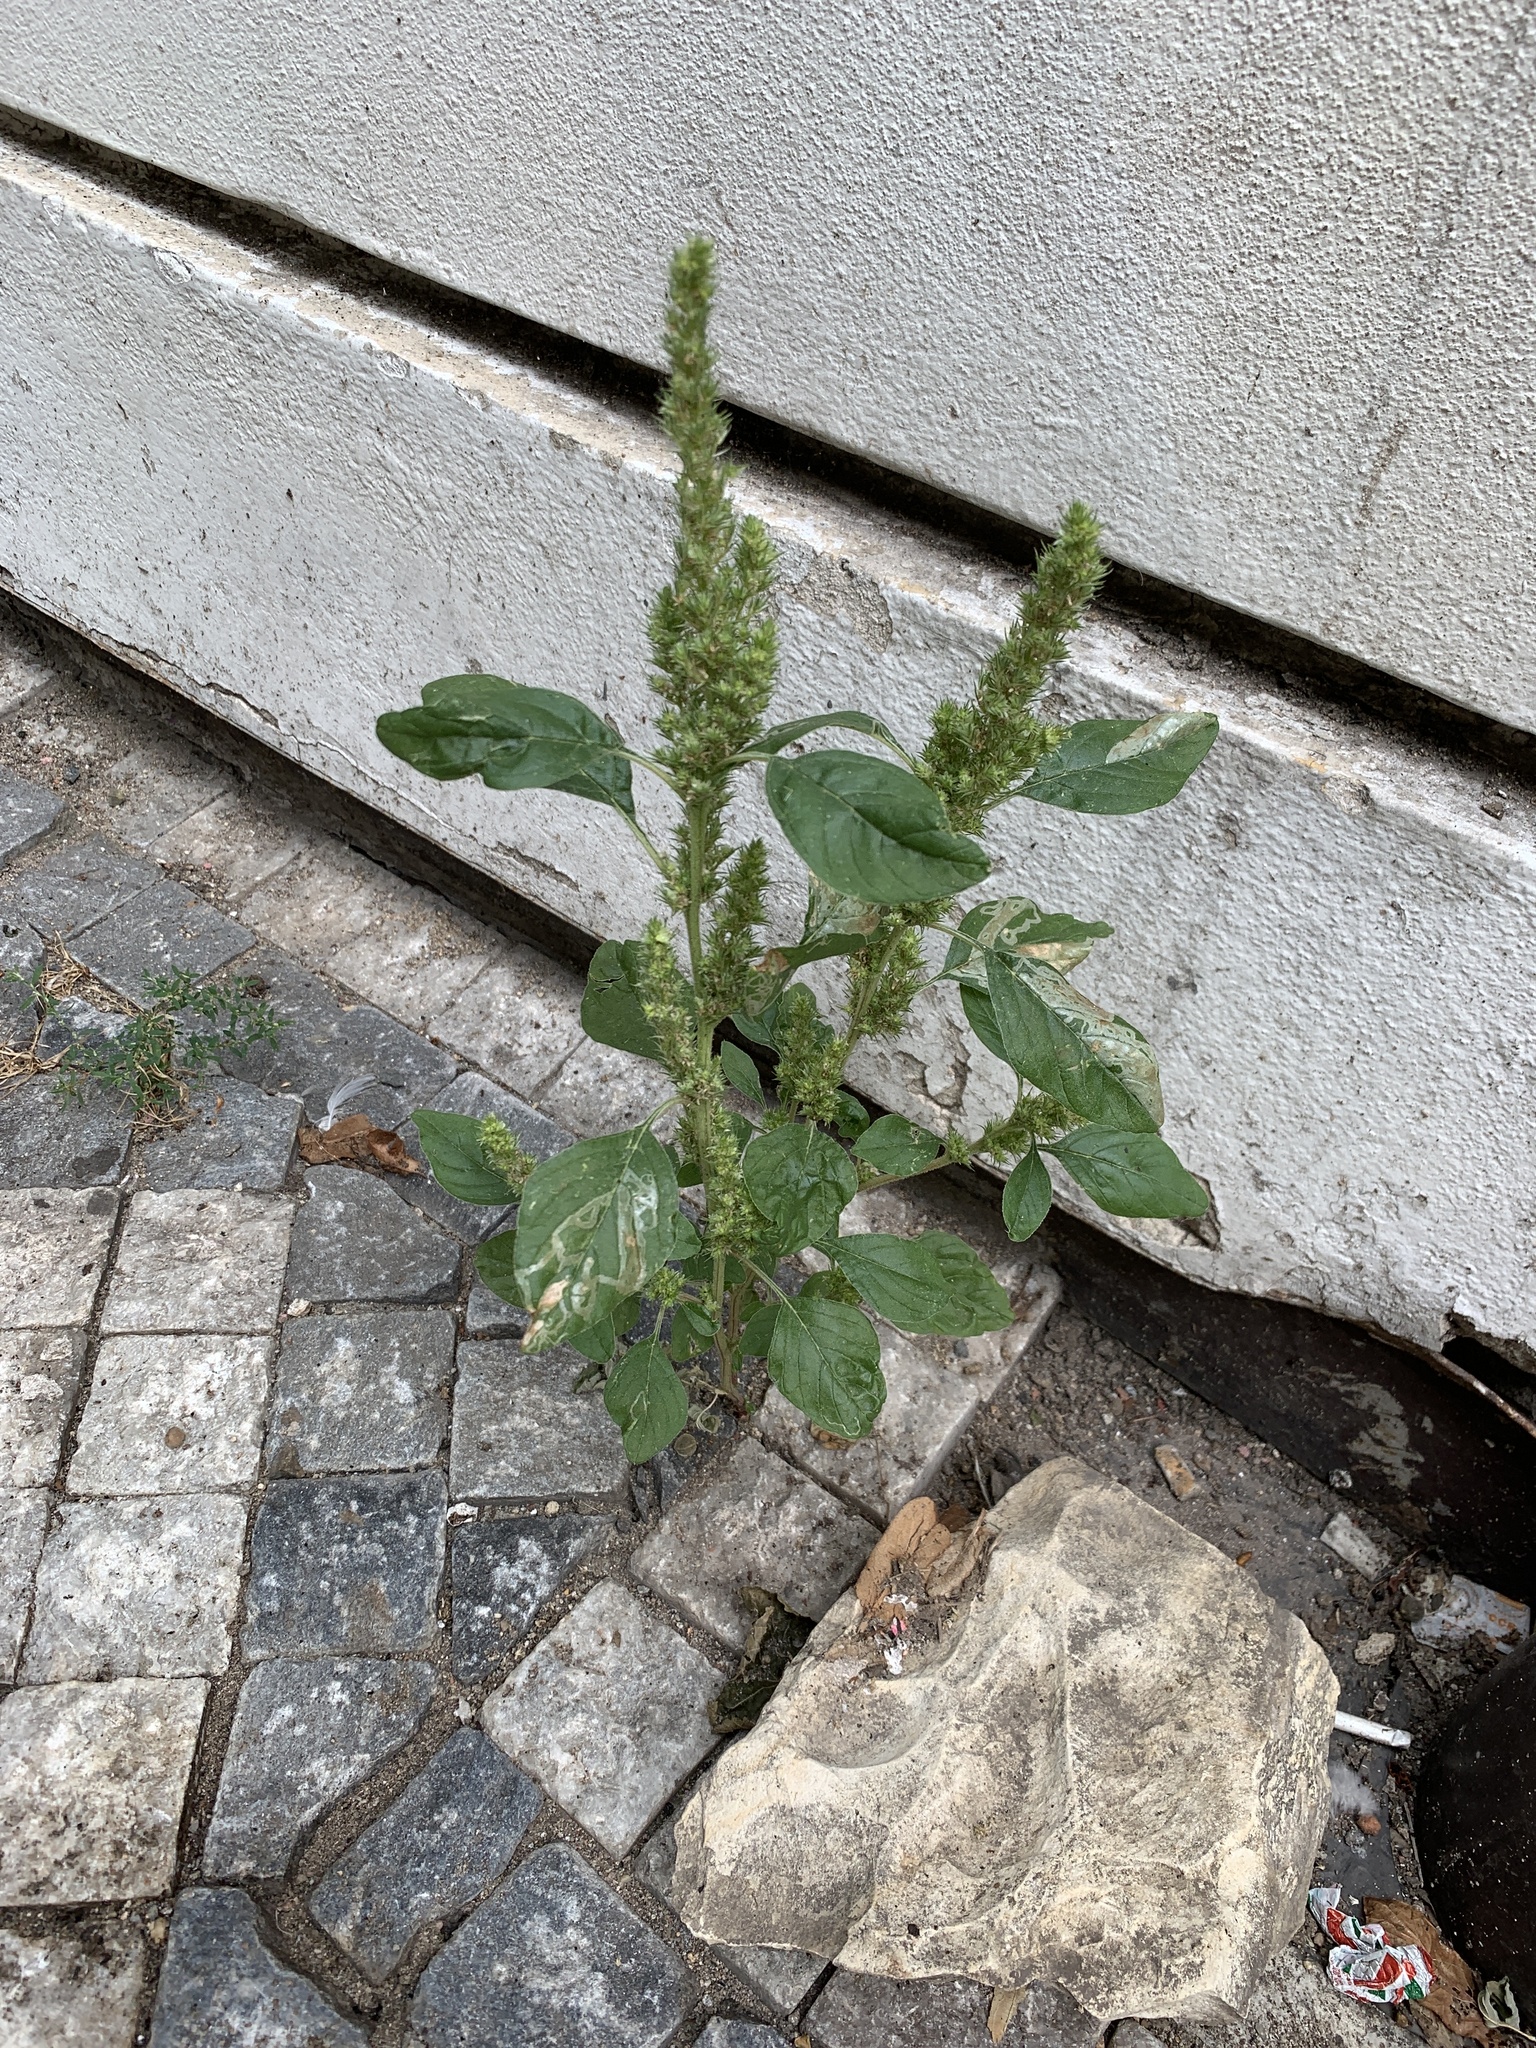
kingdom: Plantae
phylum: Tracheophyta
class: Magnoliopsida
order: Caryophyllales
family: Amaranthaceae
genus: Amaranthus
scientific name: Amaranthus retroflexus
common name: Redroot amaranth
